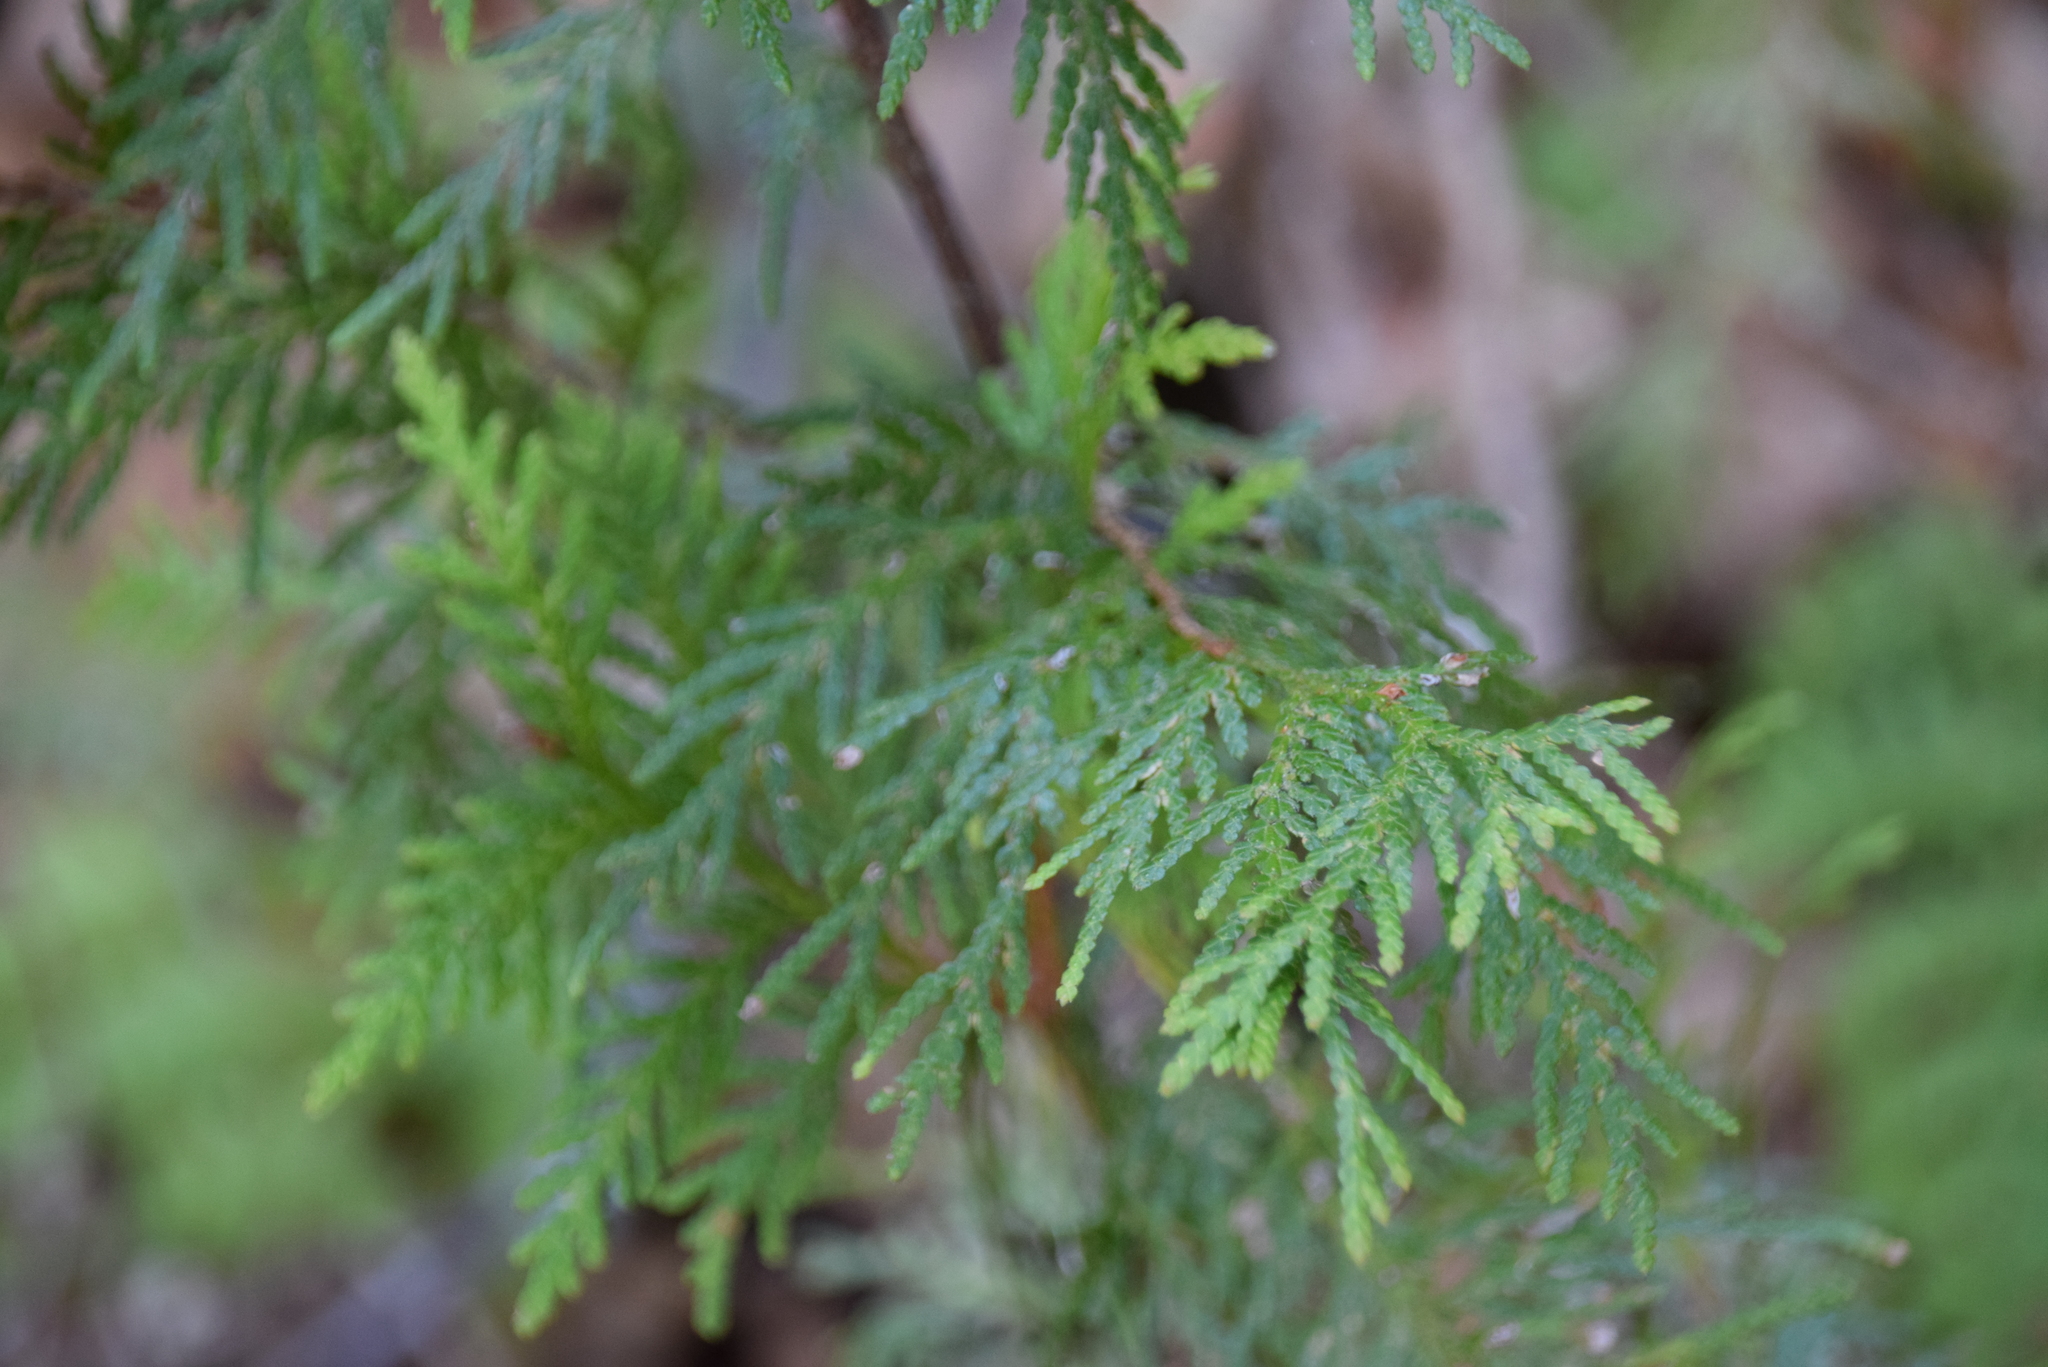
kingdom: Plantae
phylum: Tracheophyta
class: Pinopsida
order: Pinales
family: Cupressaceae
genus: Thuja
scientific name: Thuja occidentalis
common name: Northern white-cedar
